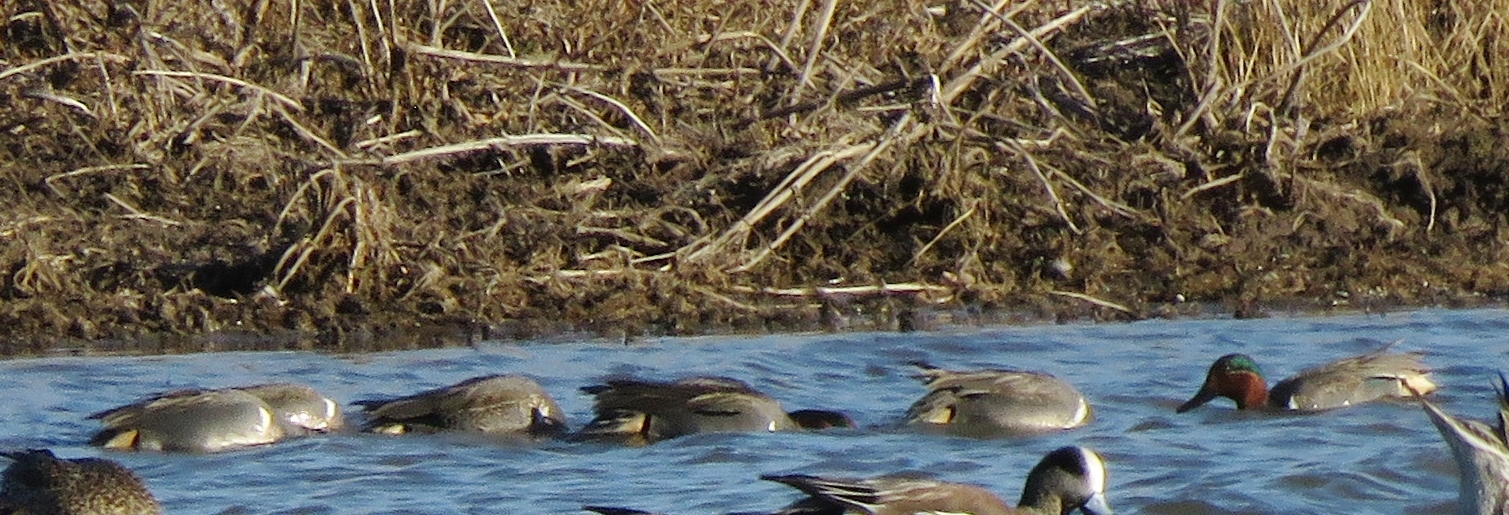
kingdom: Animalia
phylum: Chordata
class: Aves
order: Anseriformes
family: Anatidae
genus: Anas
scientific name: Anas crecca
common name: Eurasian teal
